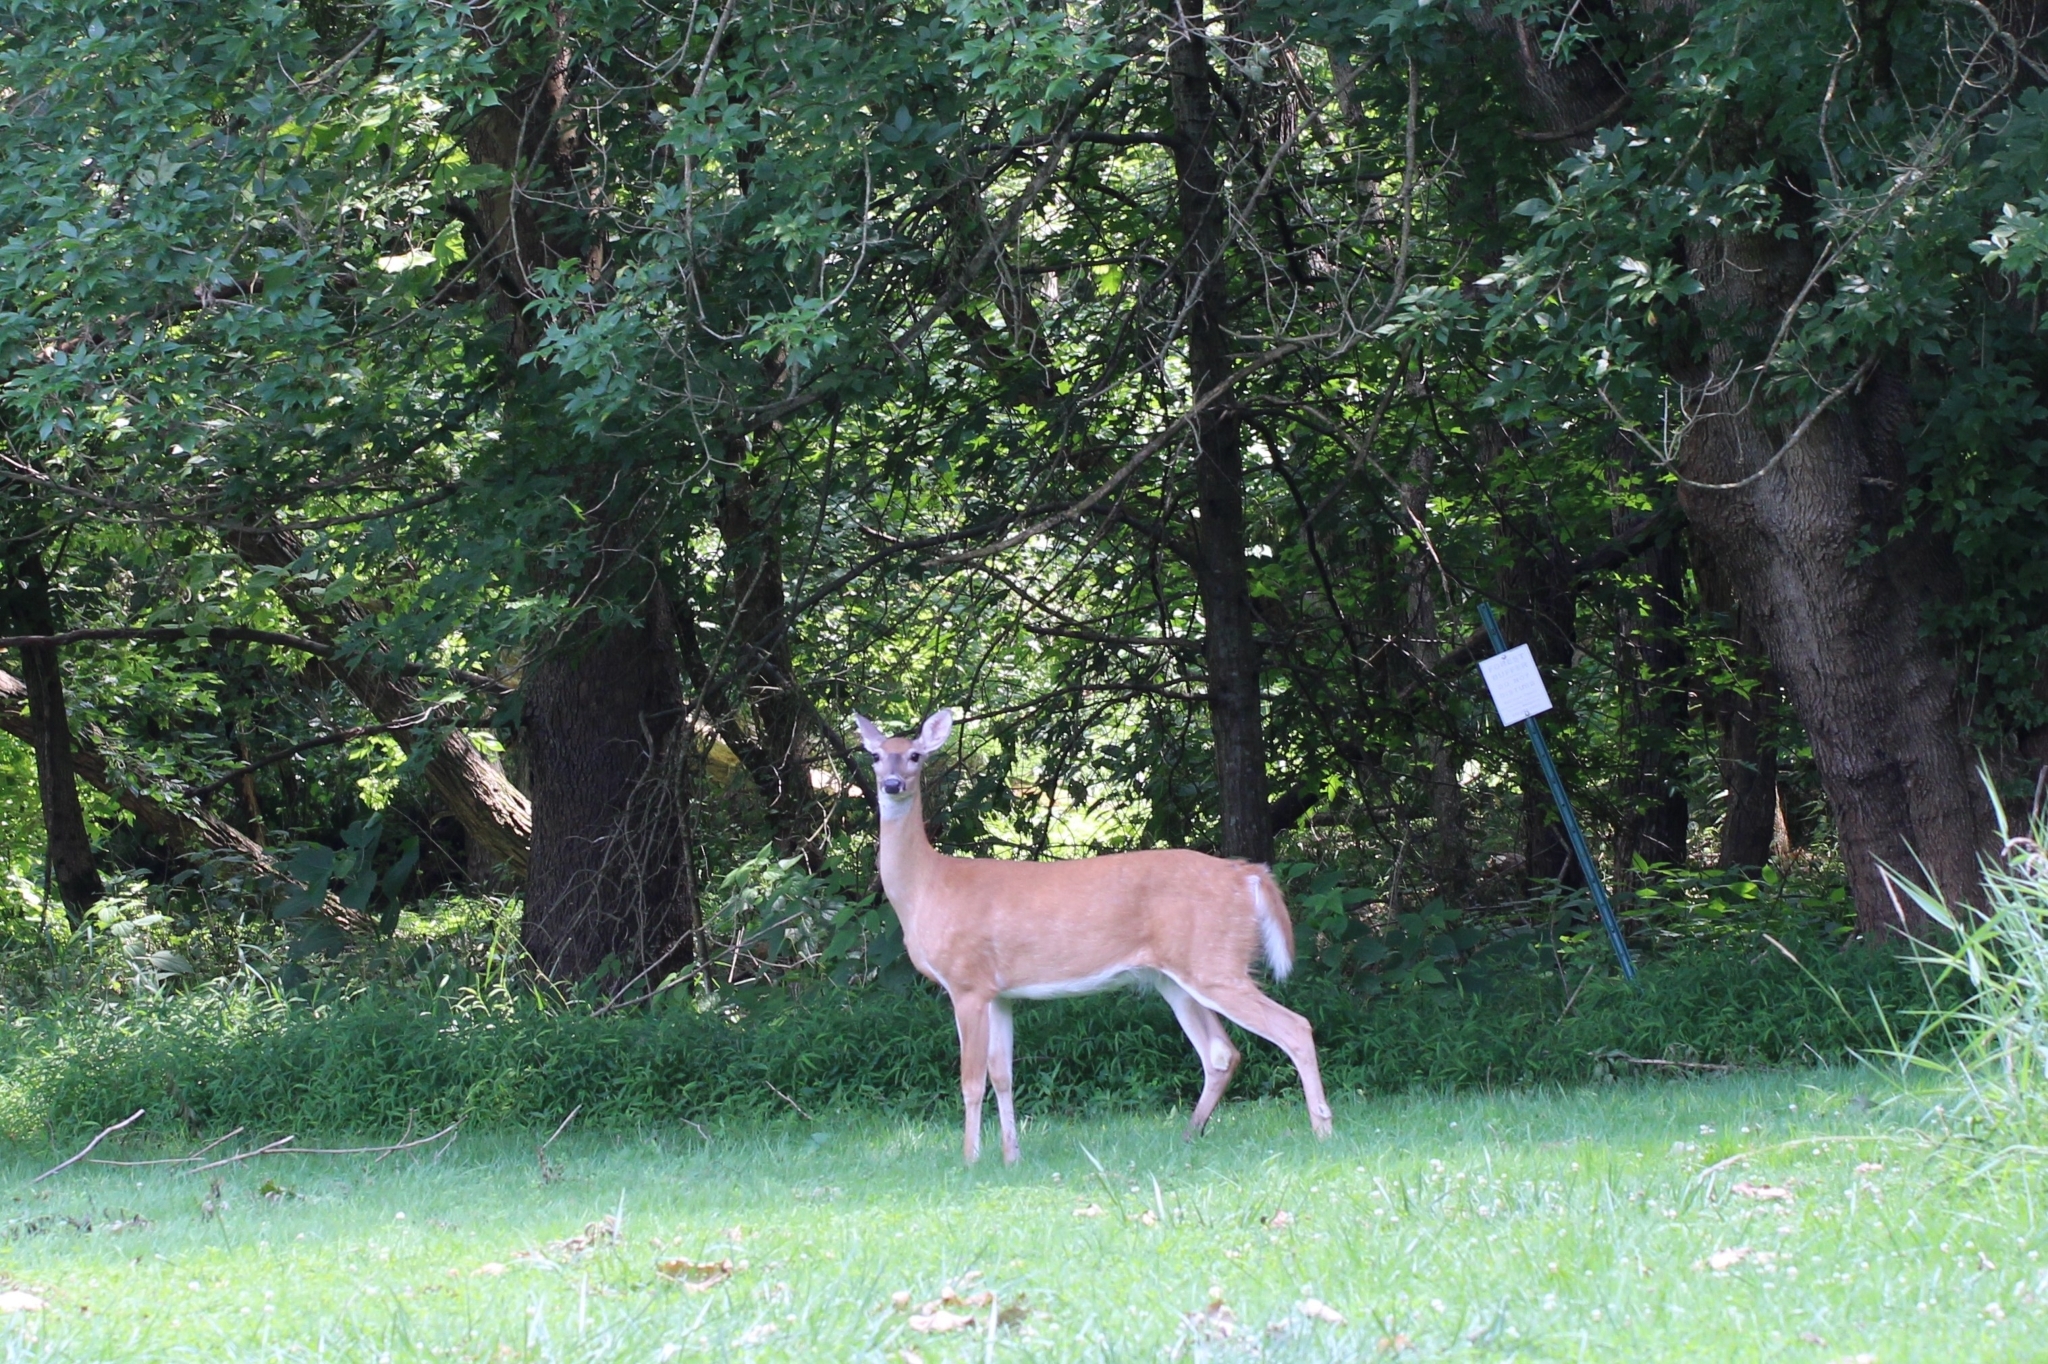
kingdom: Animalia
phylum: Chordata
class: Mammalia
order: Artiodactyla
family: Cervidae
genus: Odocoileus
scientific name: Odocoileus virginianus
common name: White-tailed deer
